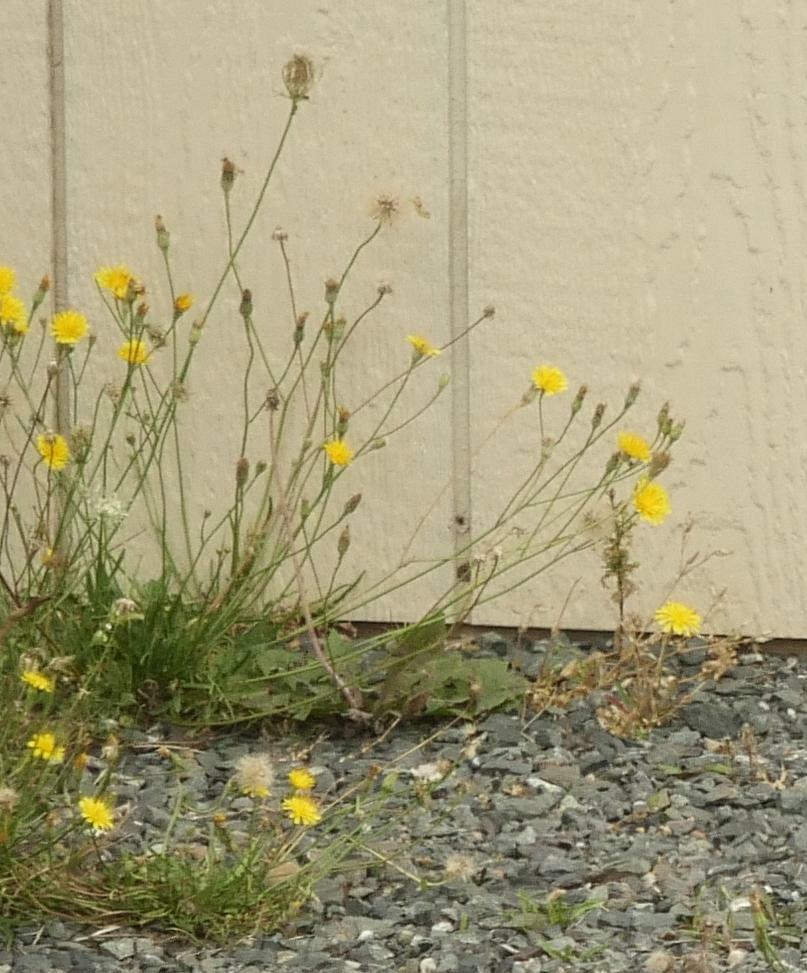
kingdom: Plantae
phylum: Tracheophyta
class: Magnoliopsida
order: Asterales
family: Asteraceae
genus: Scorzoneroides
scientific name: Scorzoneroides autumnalis
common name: Autumn hawkbit
